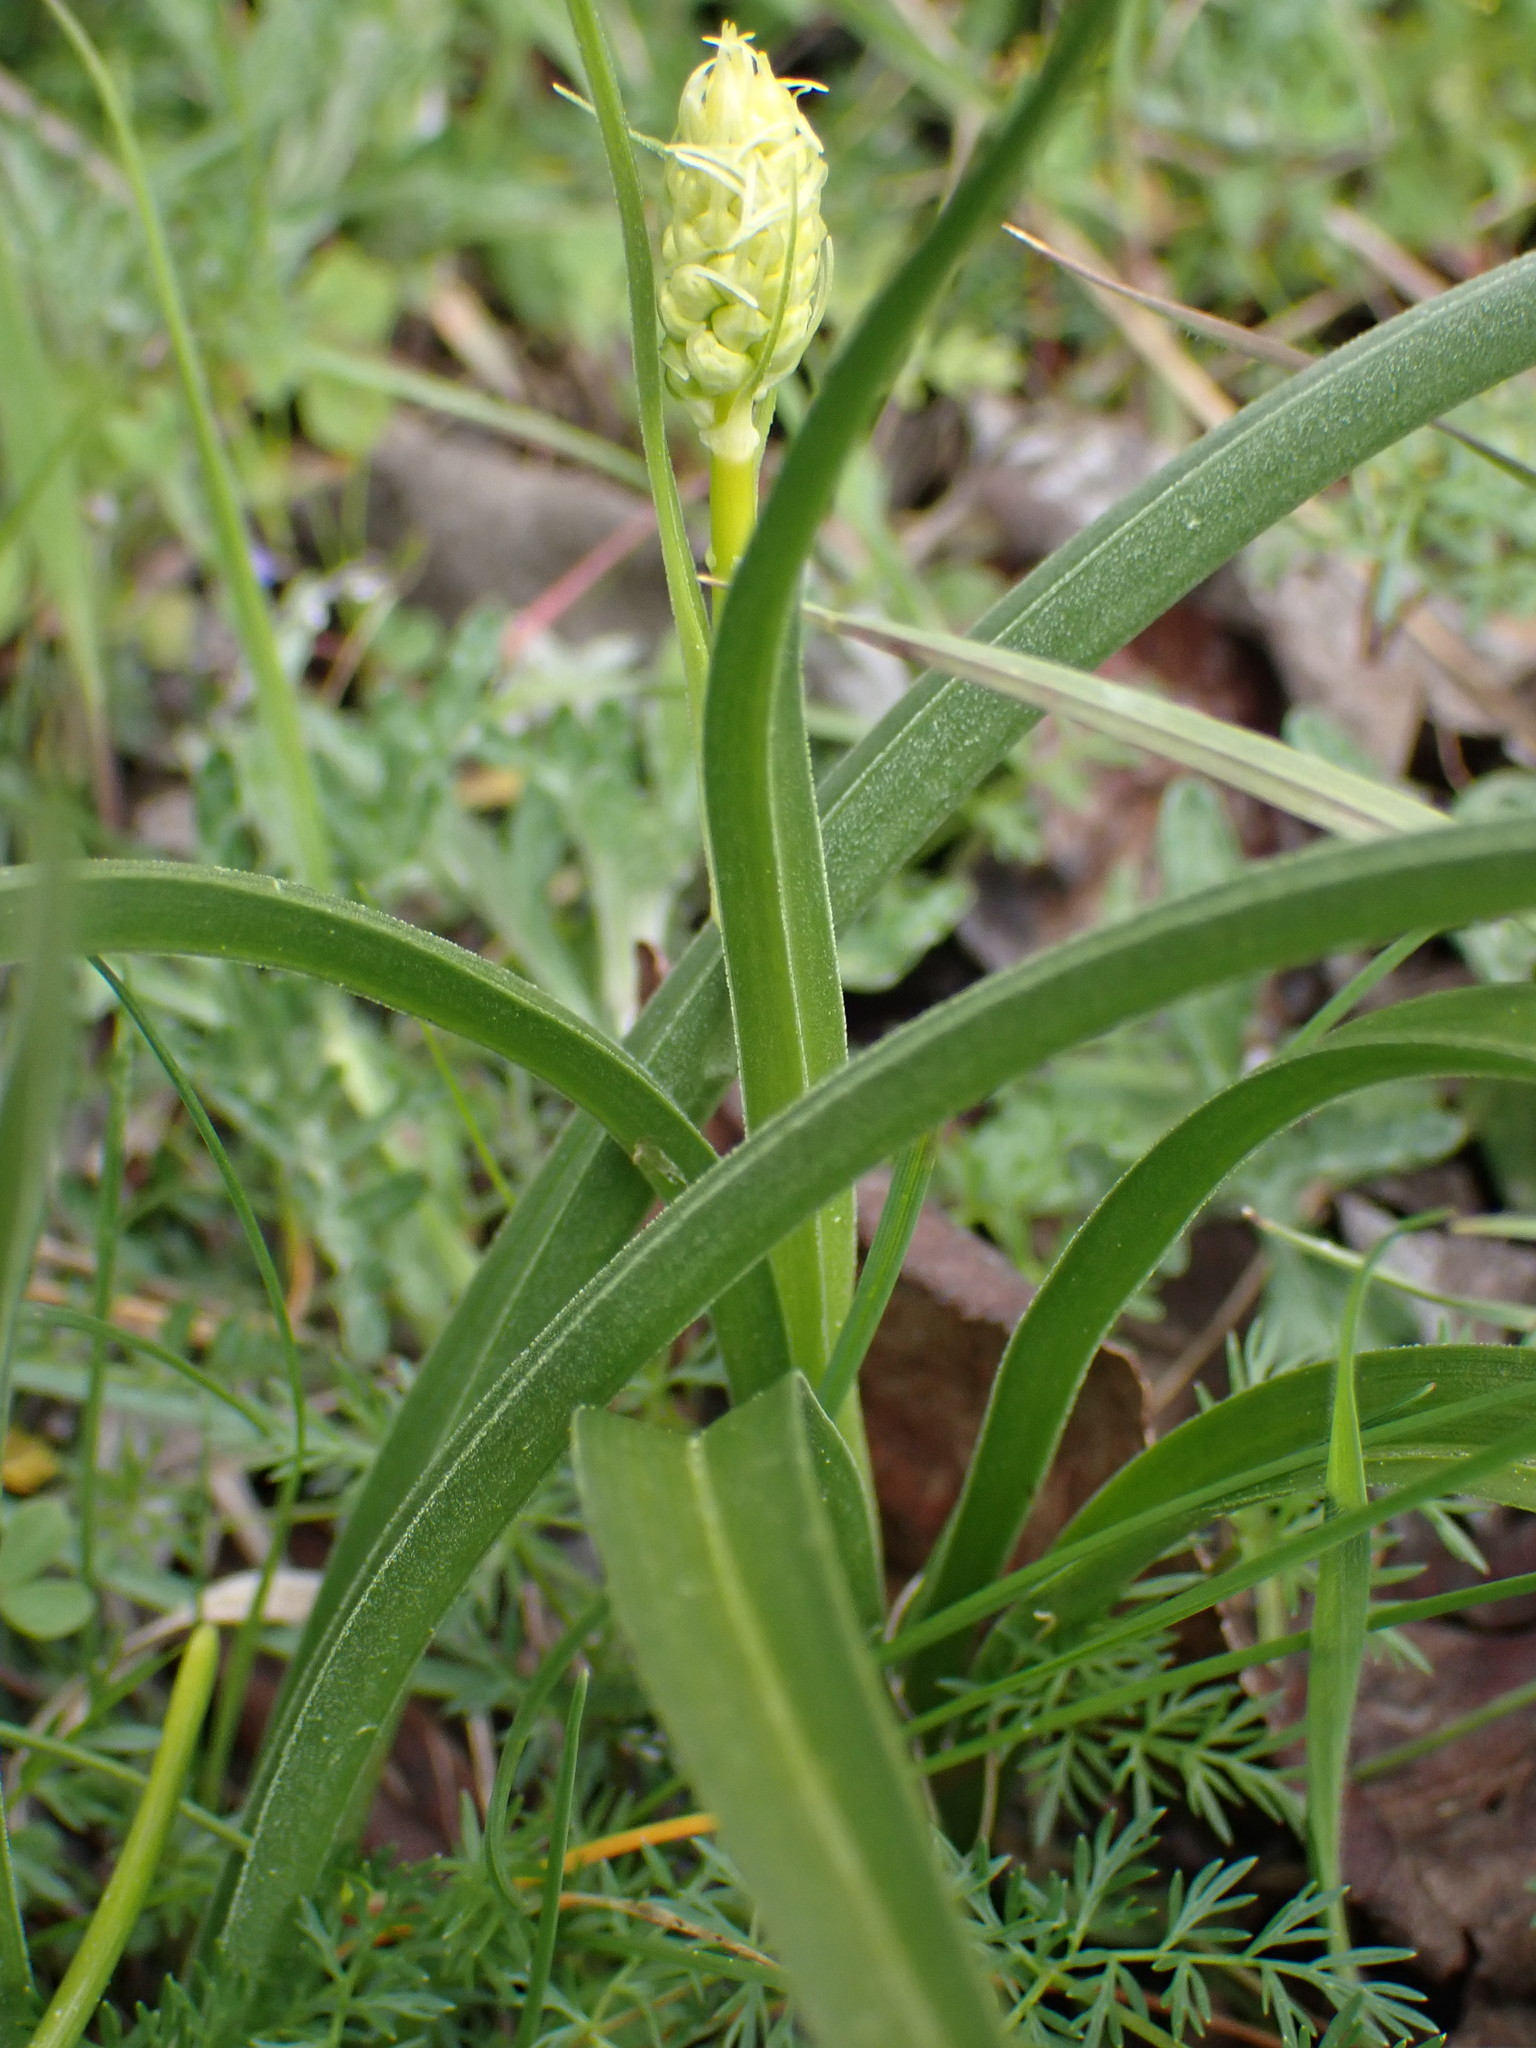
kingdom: Plantae
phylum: Tracheophyta
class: Liliopsida
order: Liliales
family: Melanthiaceae
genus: Toxicoscordion
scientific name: Toxicoscordion venenosum
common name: Meadow death camas
